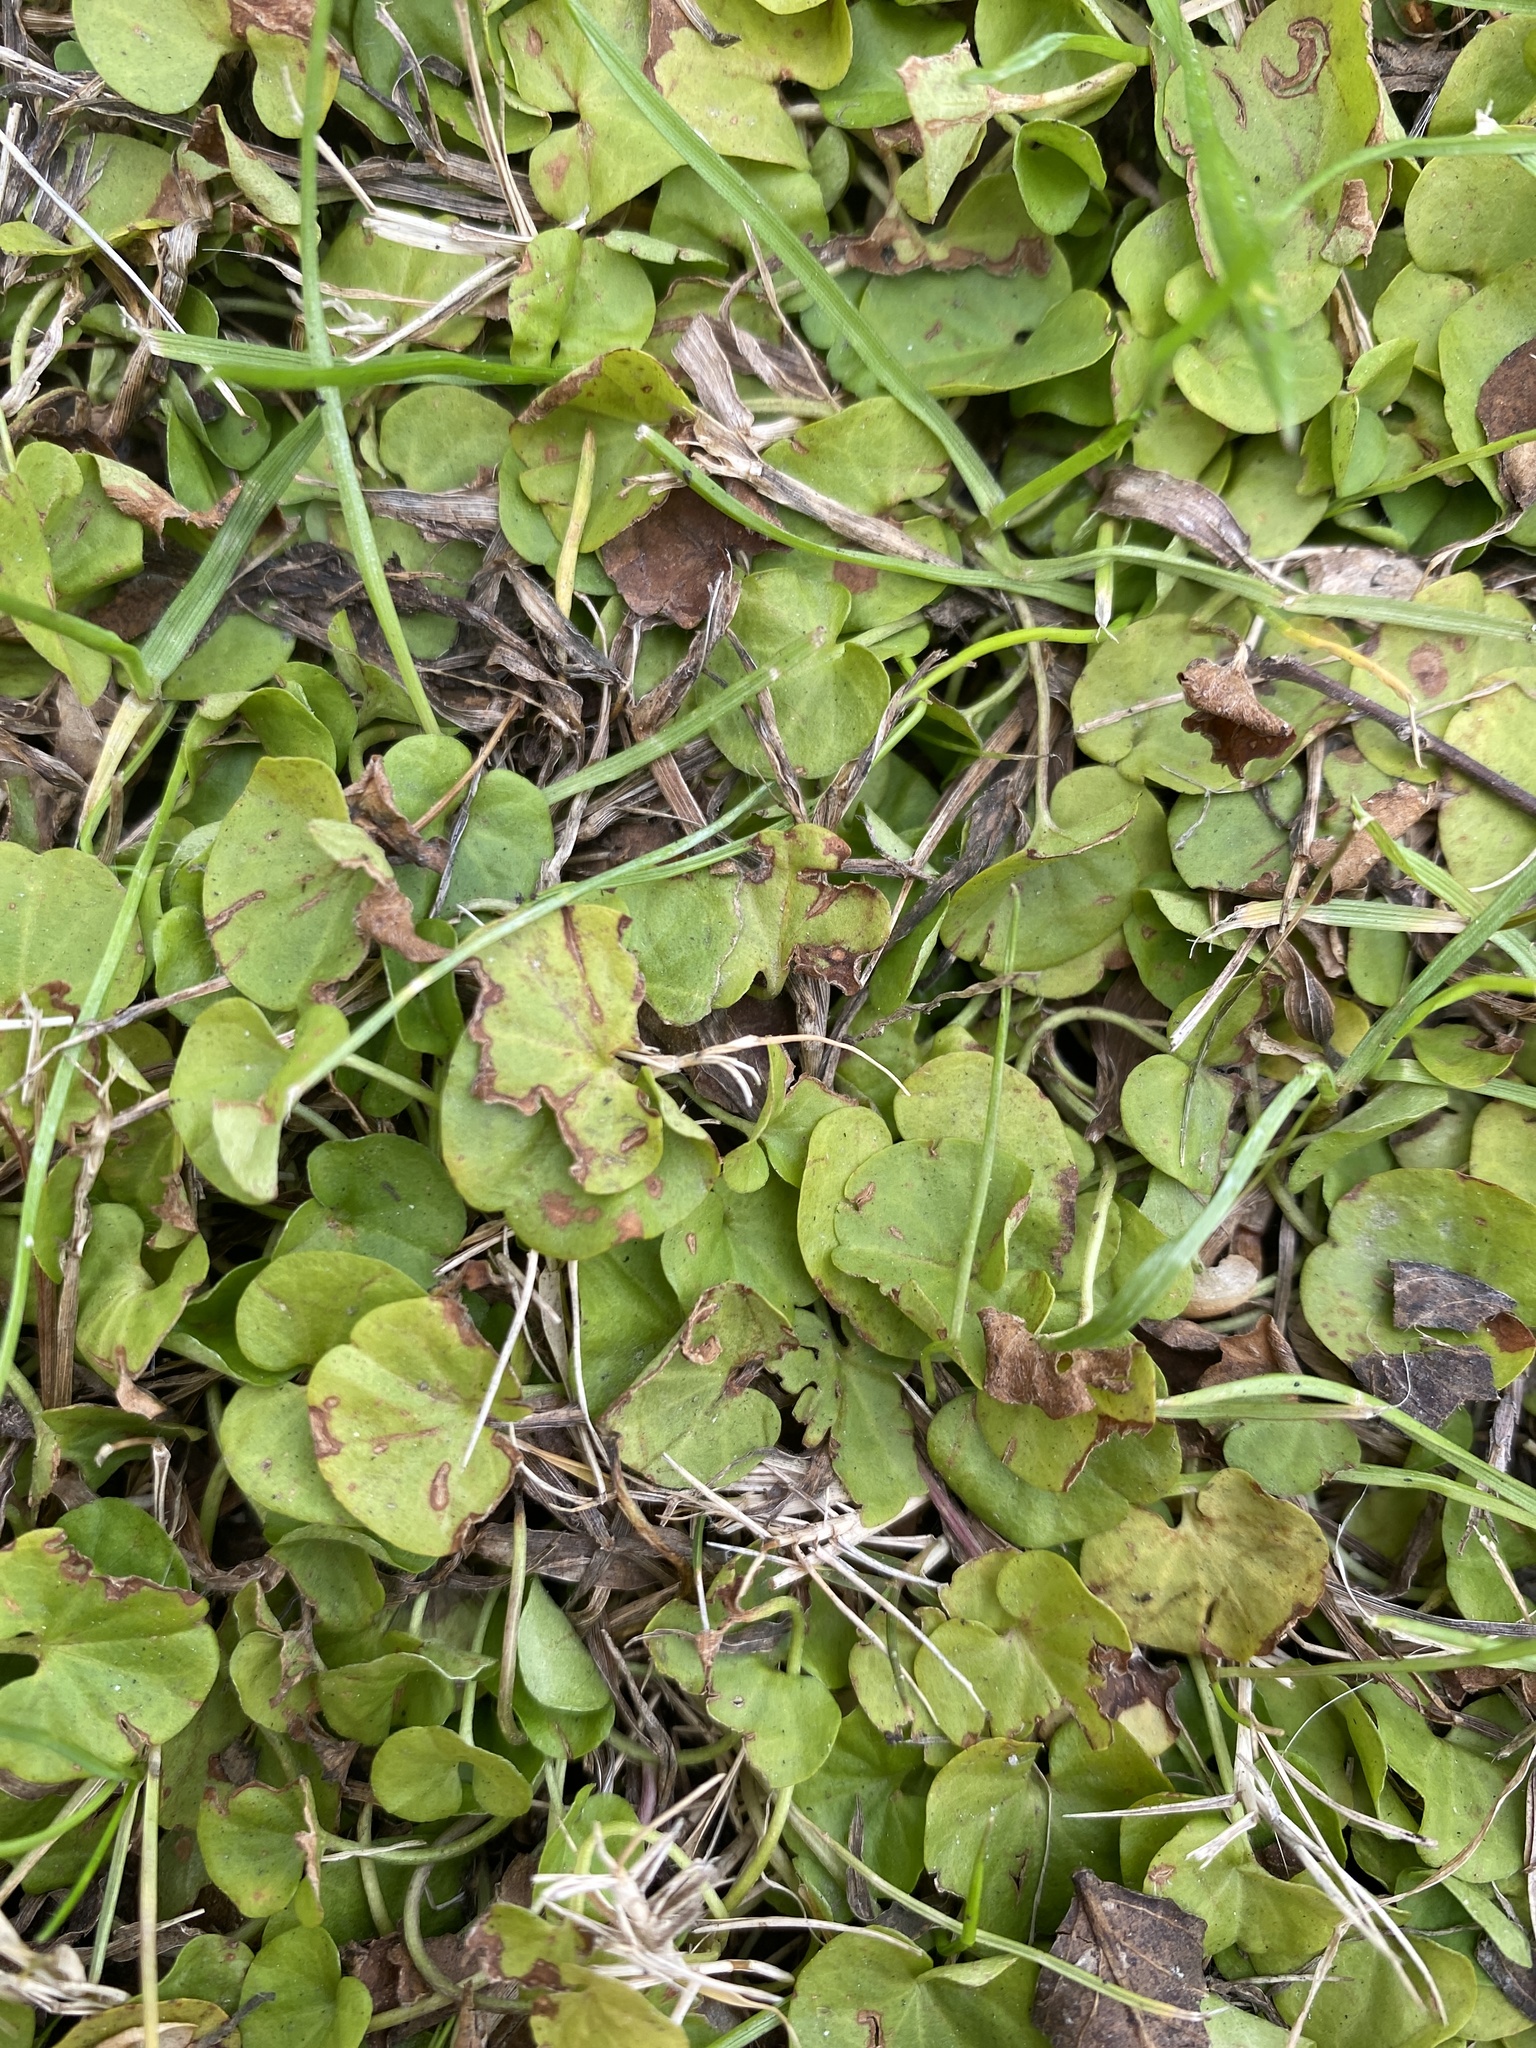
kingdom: Plantae
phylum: Tracheophyta
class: Magnoliopsida
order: Solanales
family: Convolvulaceae
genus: Dichondra
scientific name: Dichondra carolinensis
